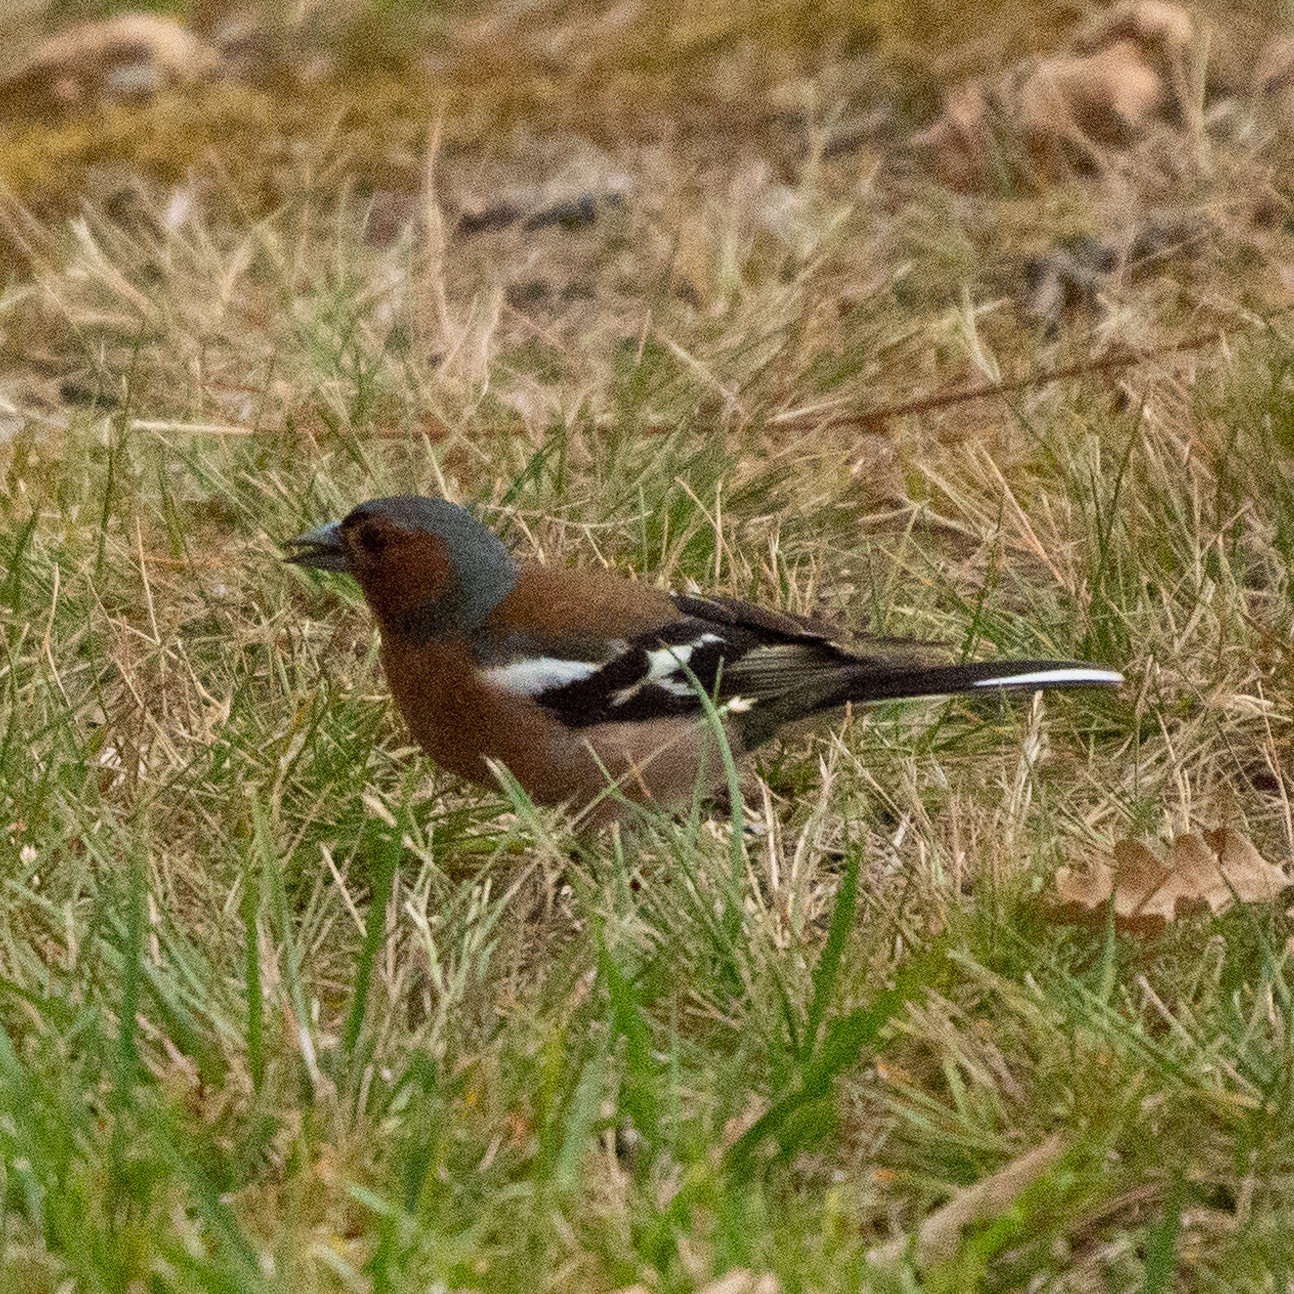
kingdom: Animalia
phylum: Chordata
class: Aves
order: Passeriformes
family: Fringillidae
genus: Fringilla
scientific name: Fringilla coelebs
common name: Common chaffinch
